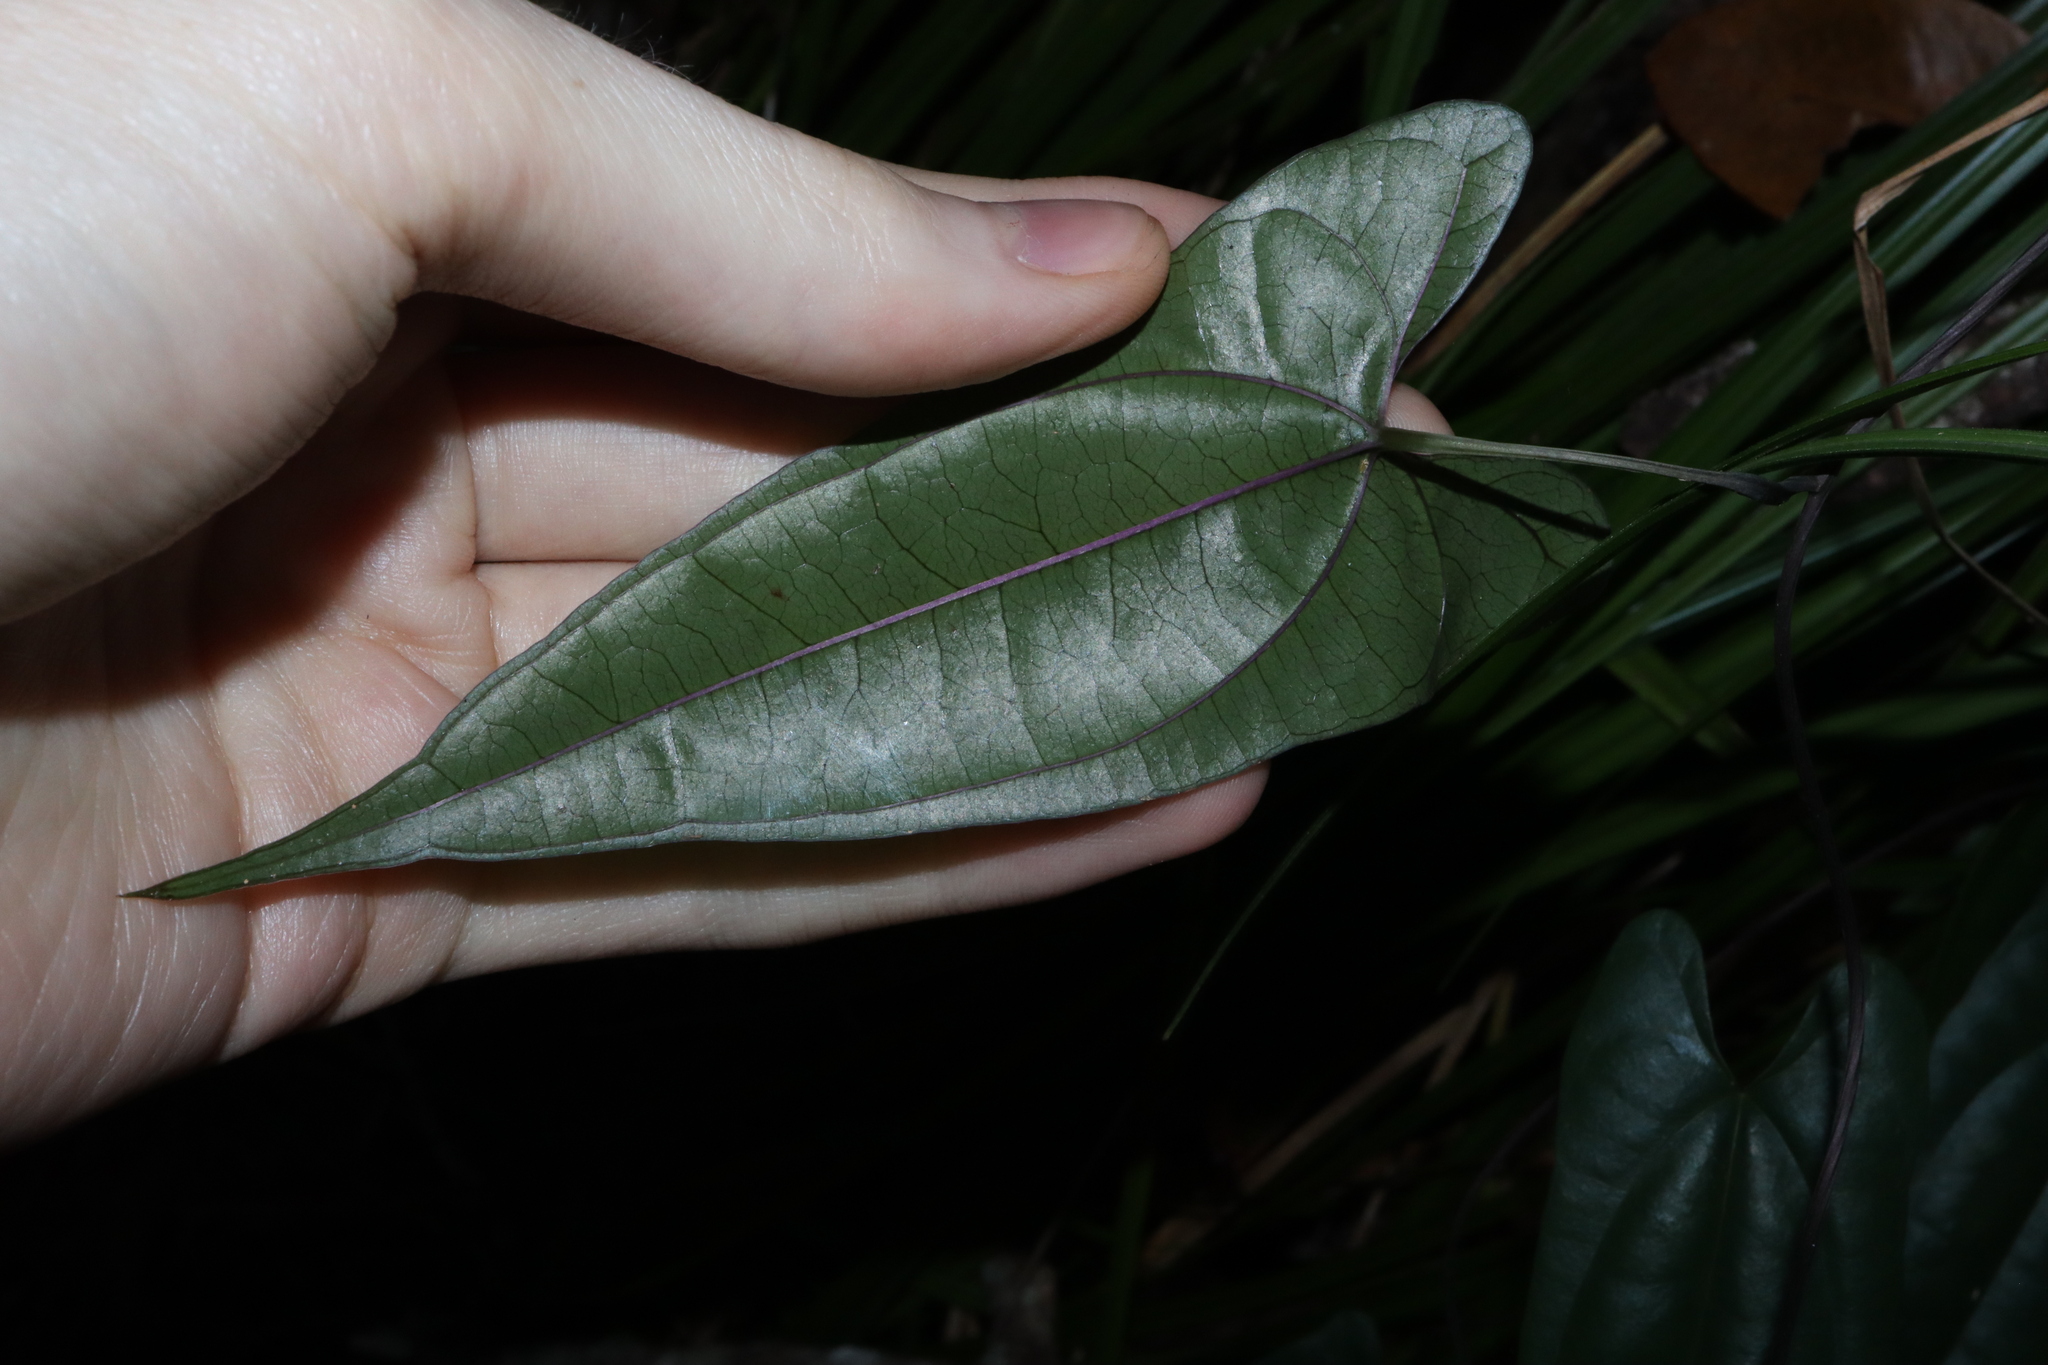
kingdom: Plantae
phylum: Tracheophyta
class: Liliopsida
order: Dioscoreales
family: Dioscoreaceae
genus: Dioscorea
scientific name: Dioscorea transversa
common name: Long yam
